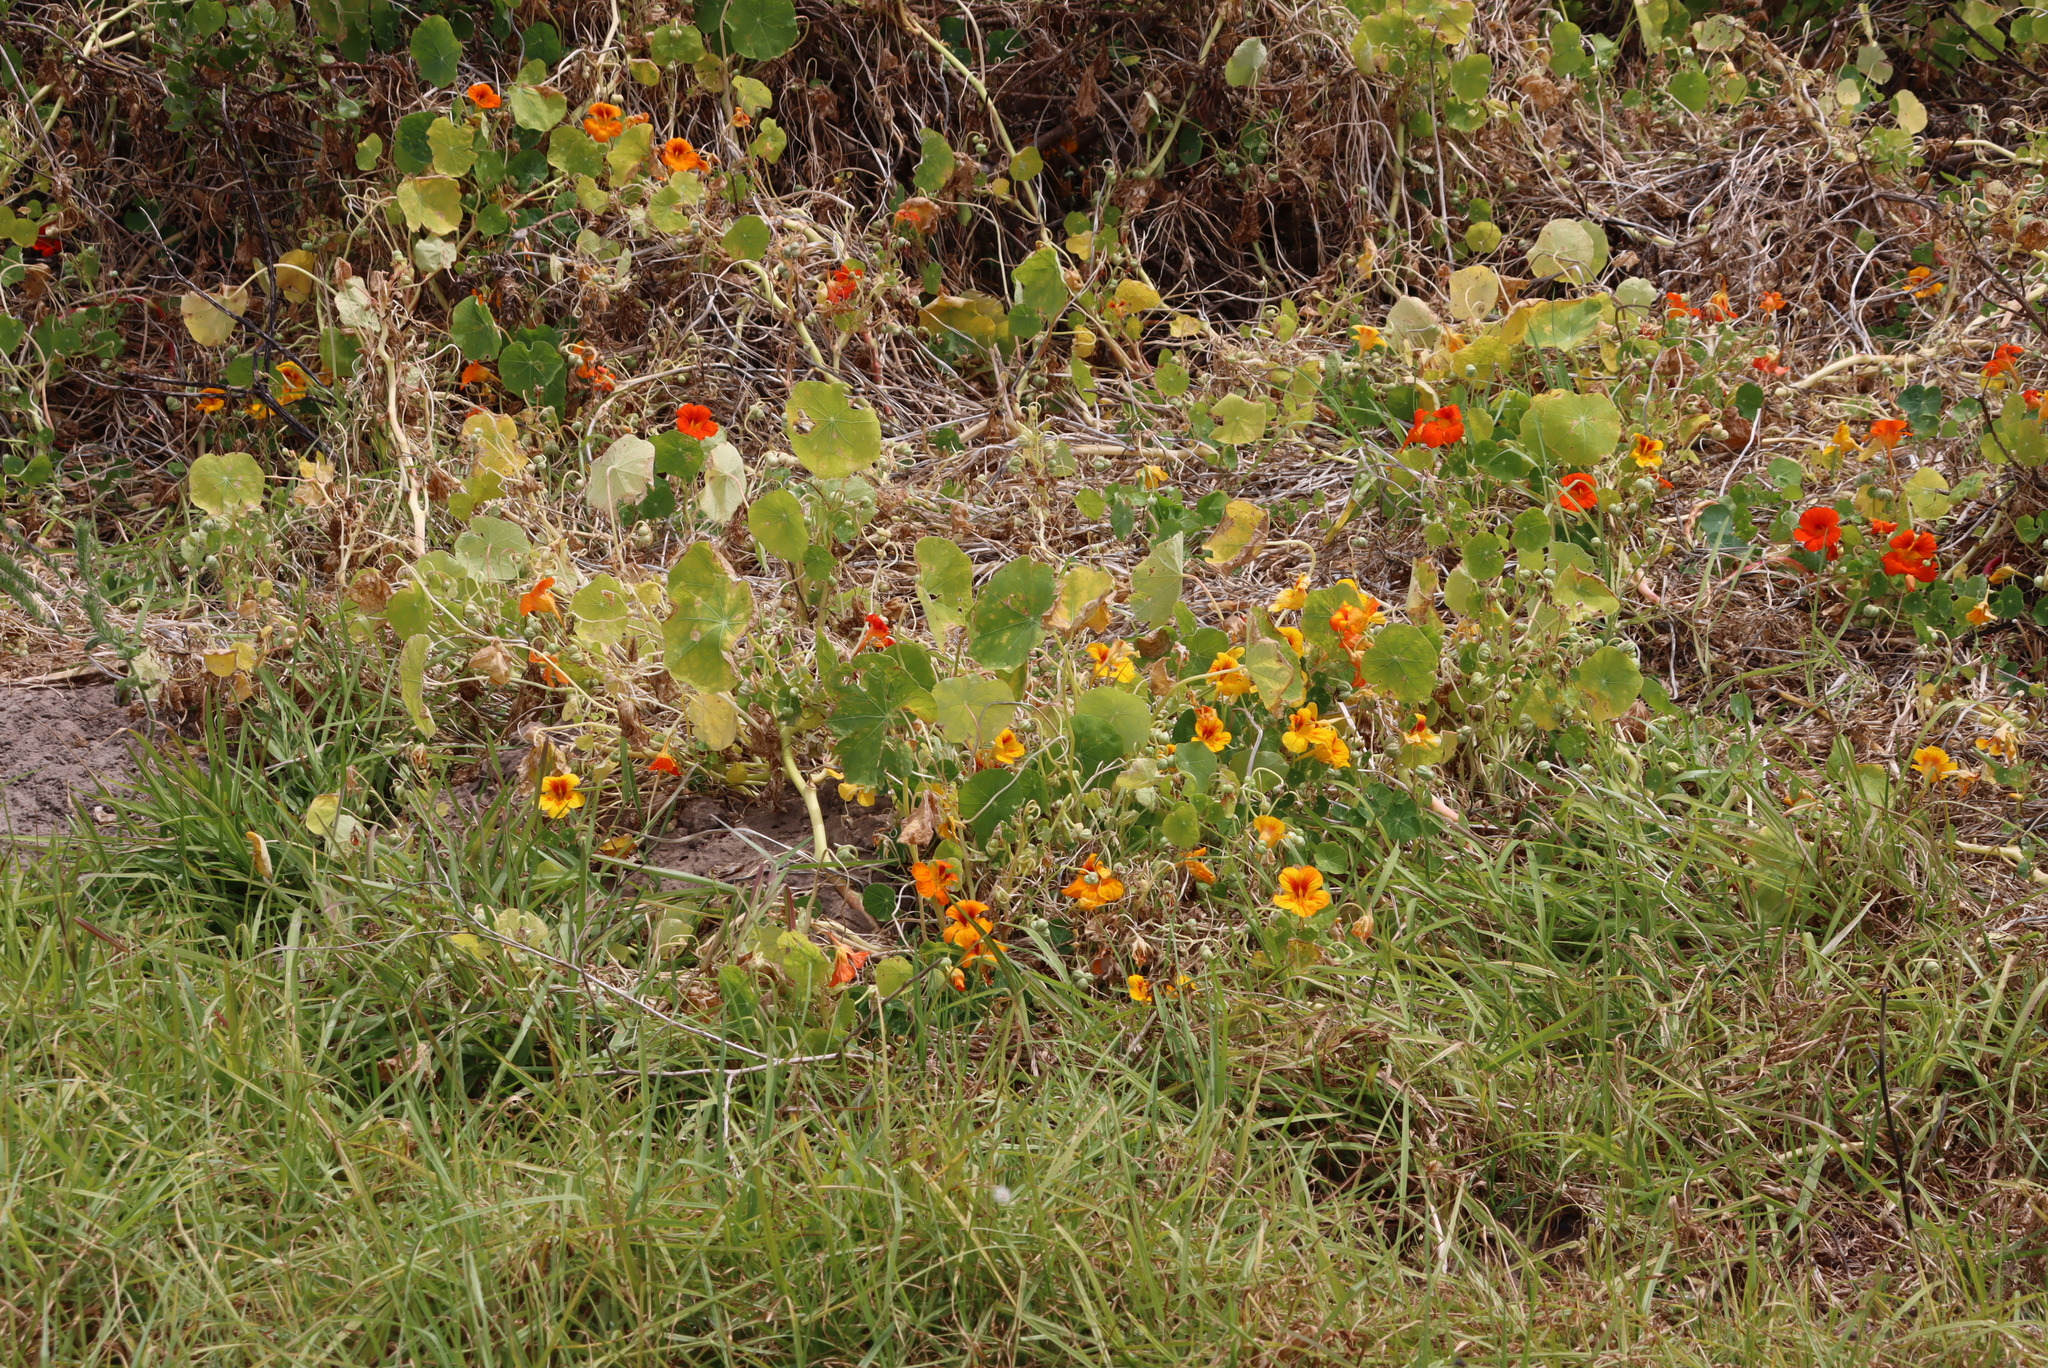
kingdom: Plantae
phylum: Tracheophyta
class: Magnoliopsida
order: Brassicales
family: Tropaeolaceae
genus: Tropaeolum
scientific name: Tropaeolum majus
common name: Nasturtium
